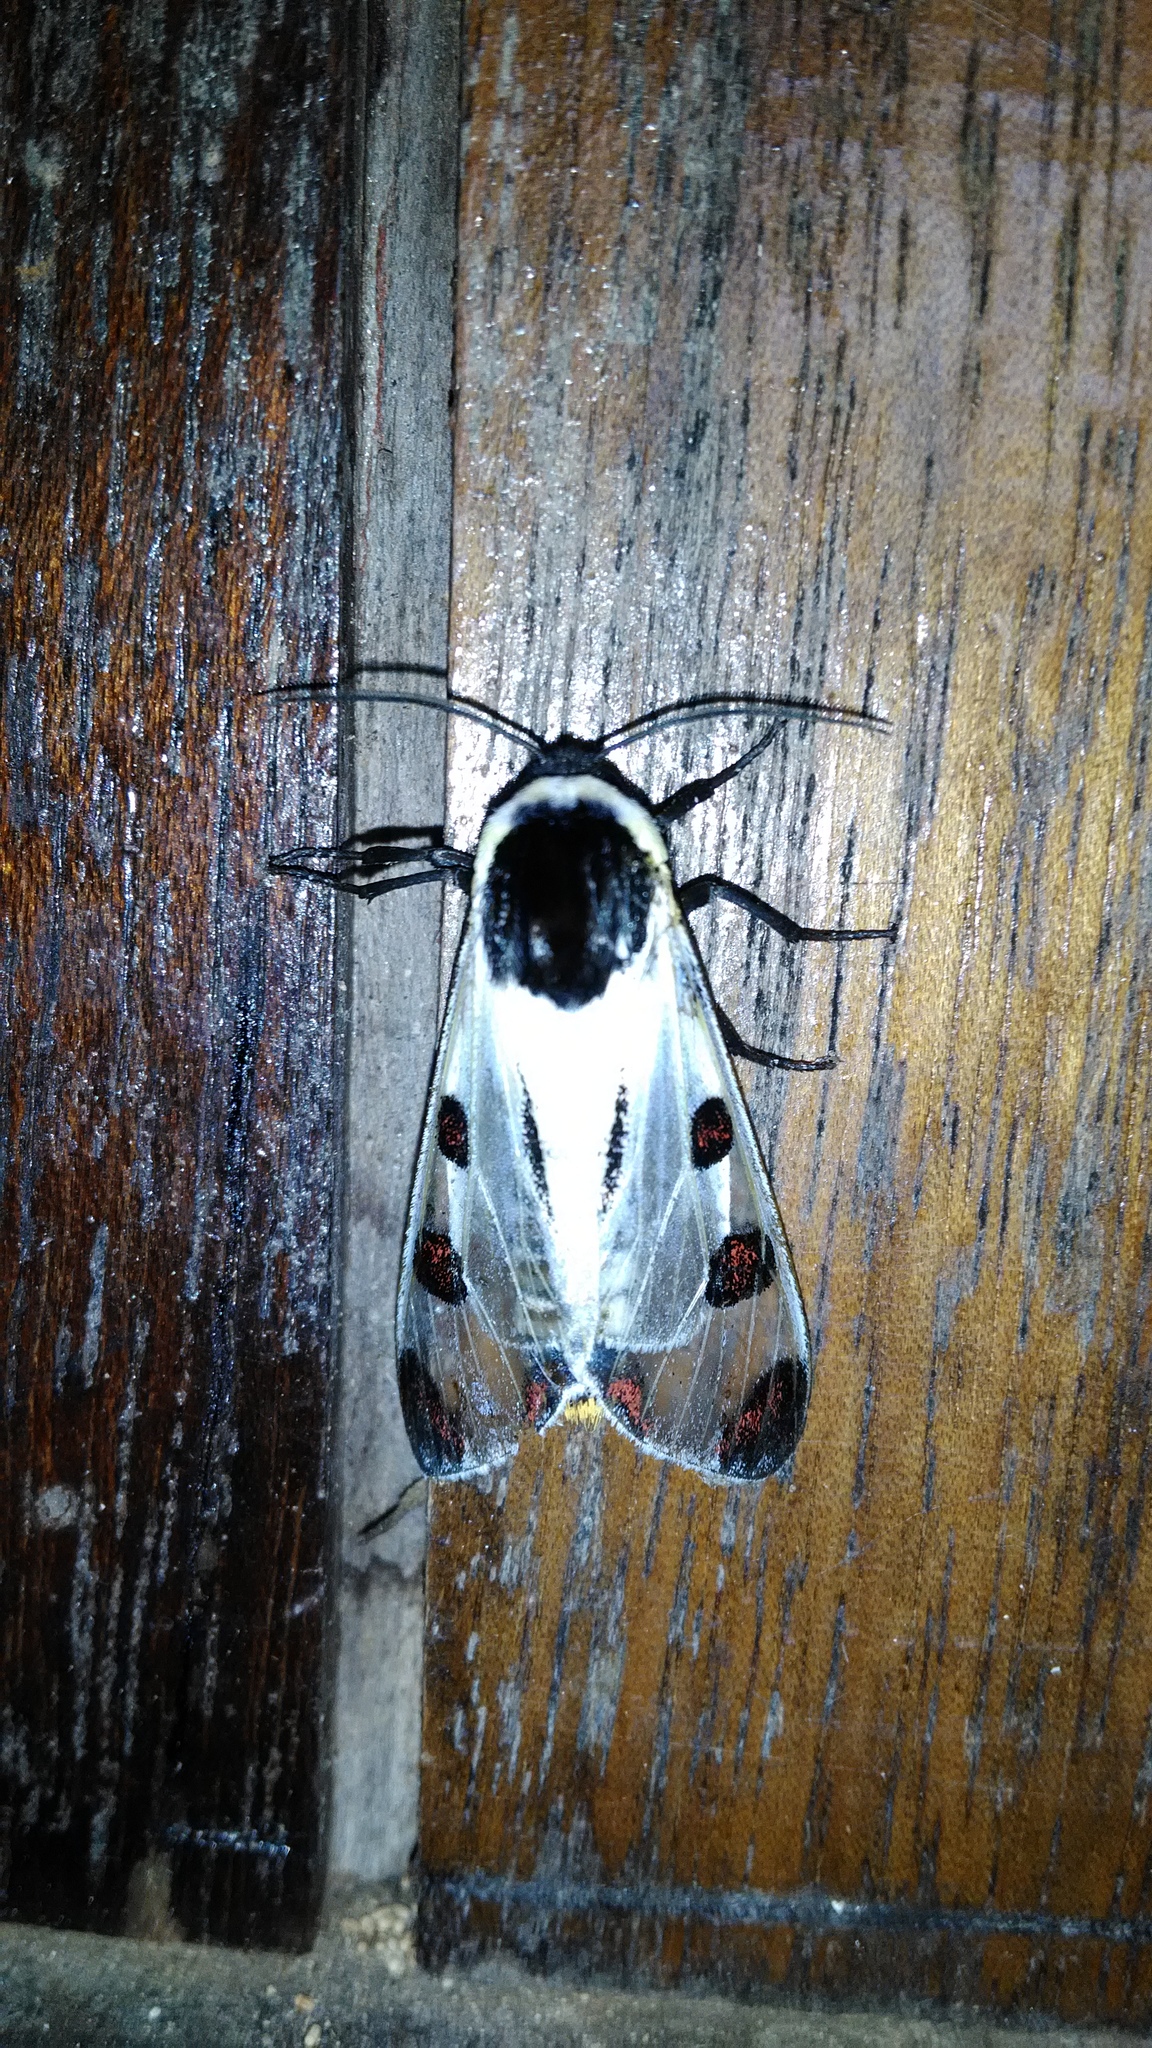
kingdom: Animalia
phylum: Arthropoda
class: Insecta
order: Lepidoptera
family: Erebidae
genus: Dysschema
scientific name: Dysschema boisduvalii
